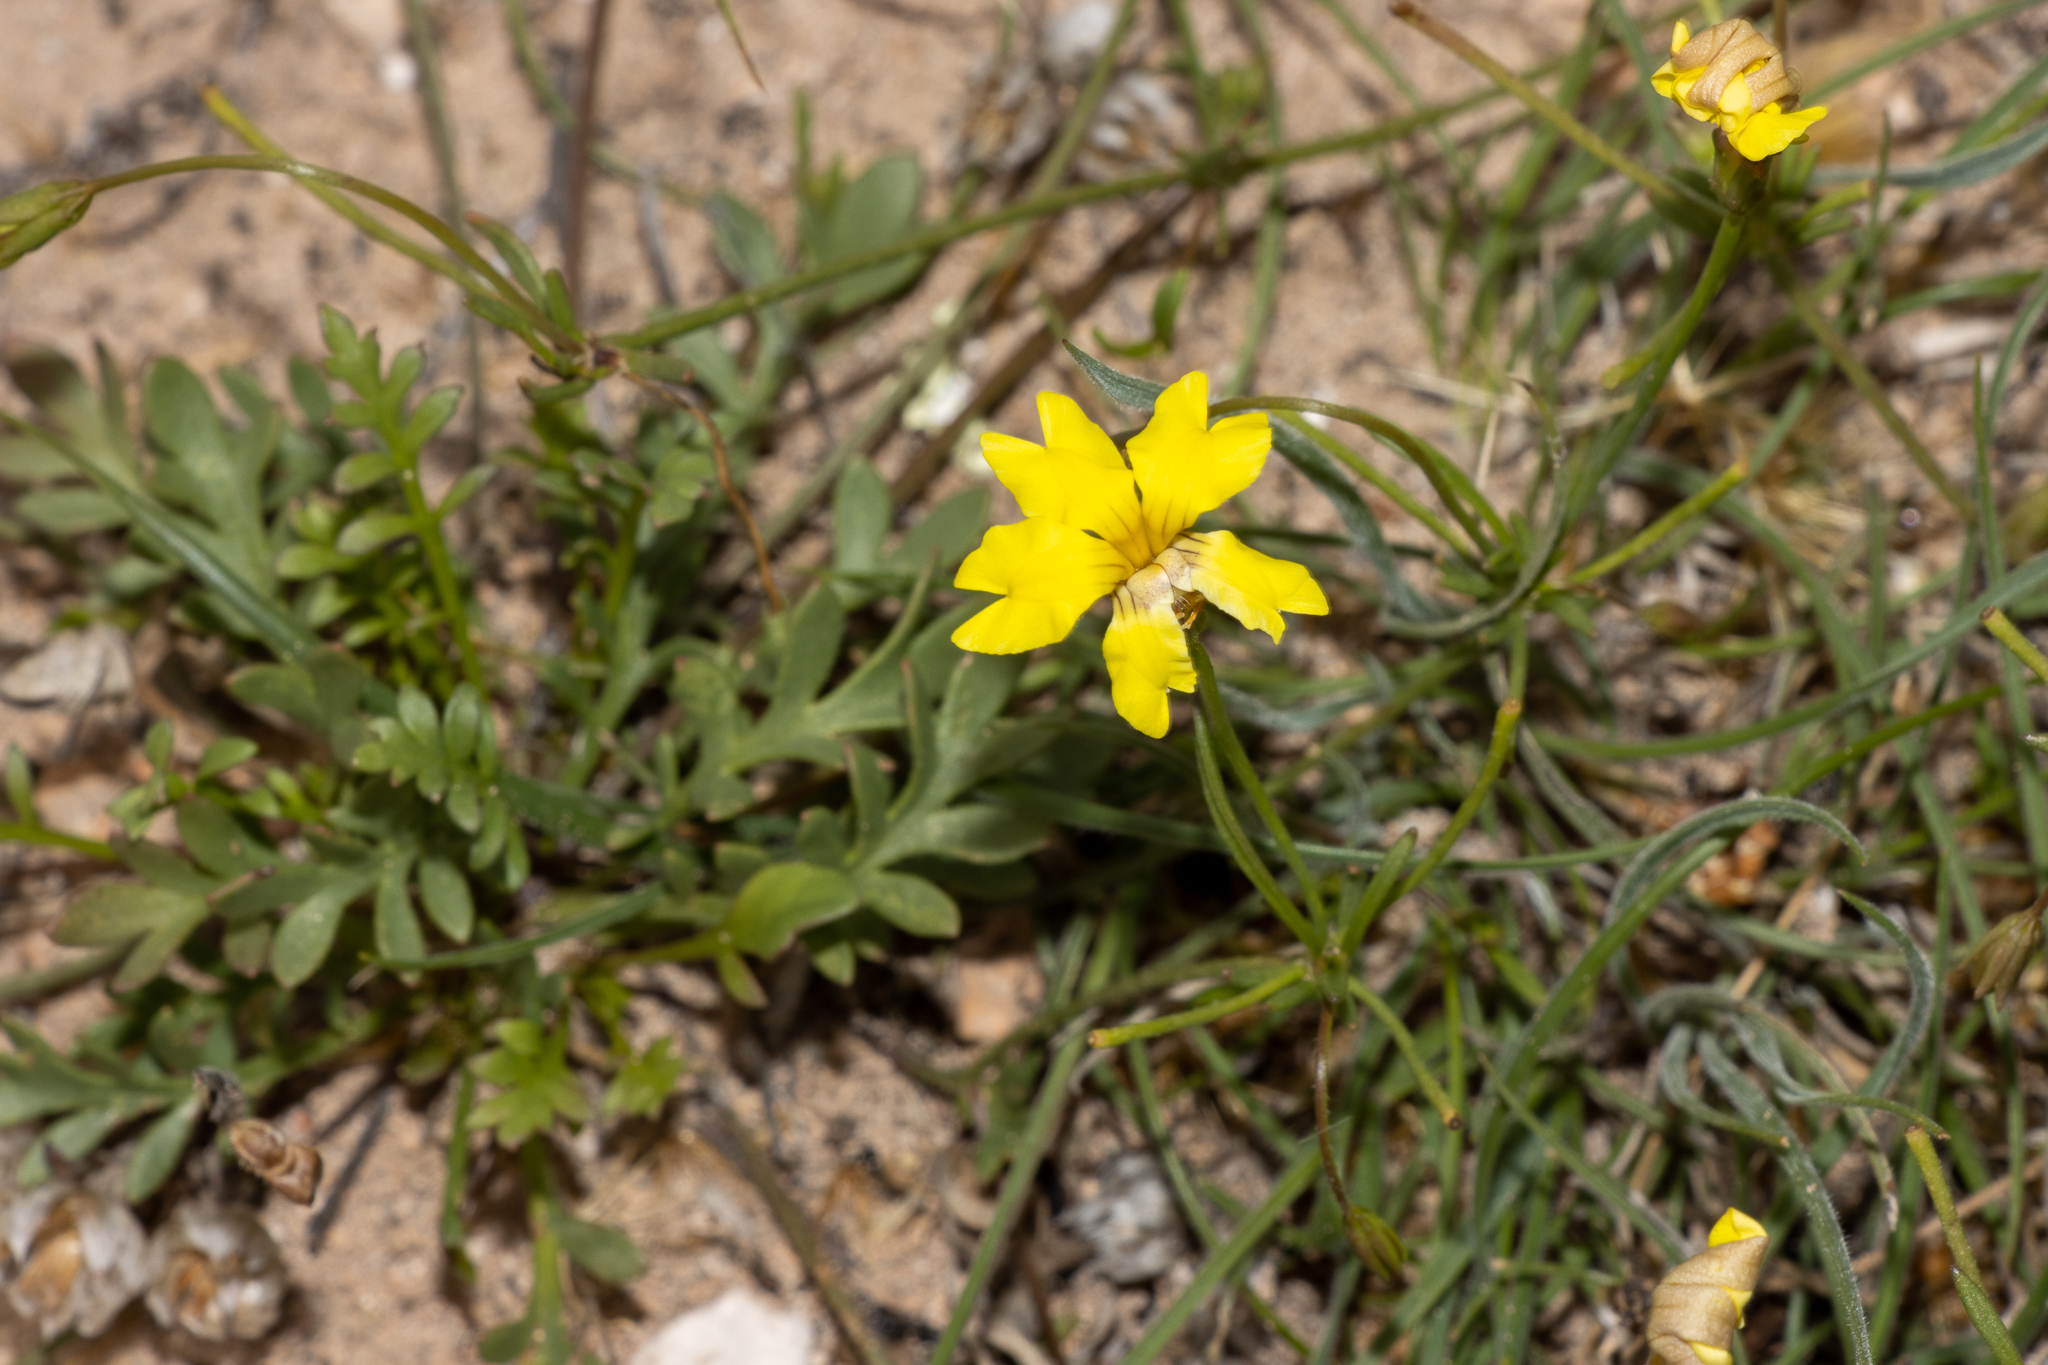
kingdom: Plantae
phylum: Tracheophyta
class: Magnoliopsida
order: Asterales
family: Goodeniaceae
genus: Goodenia
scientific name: Goodenia pinnatifida
